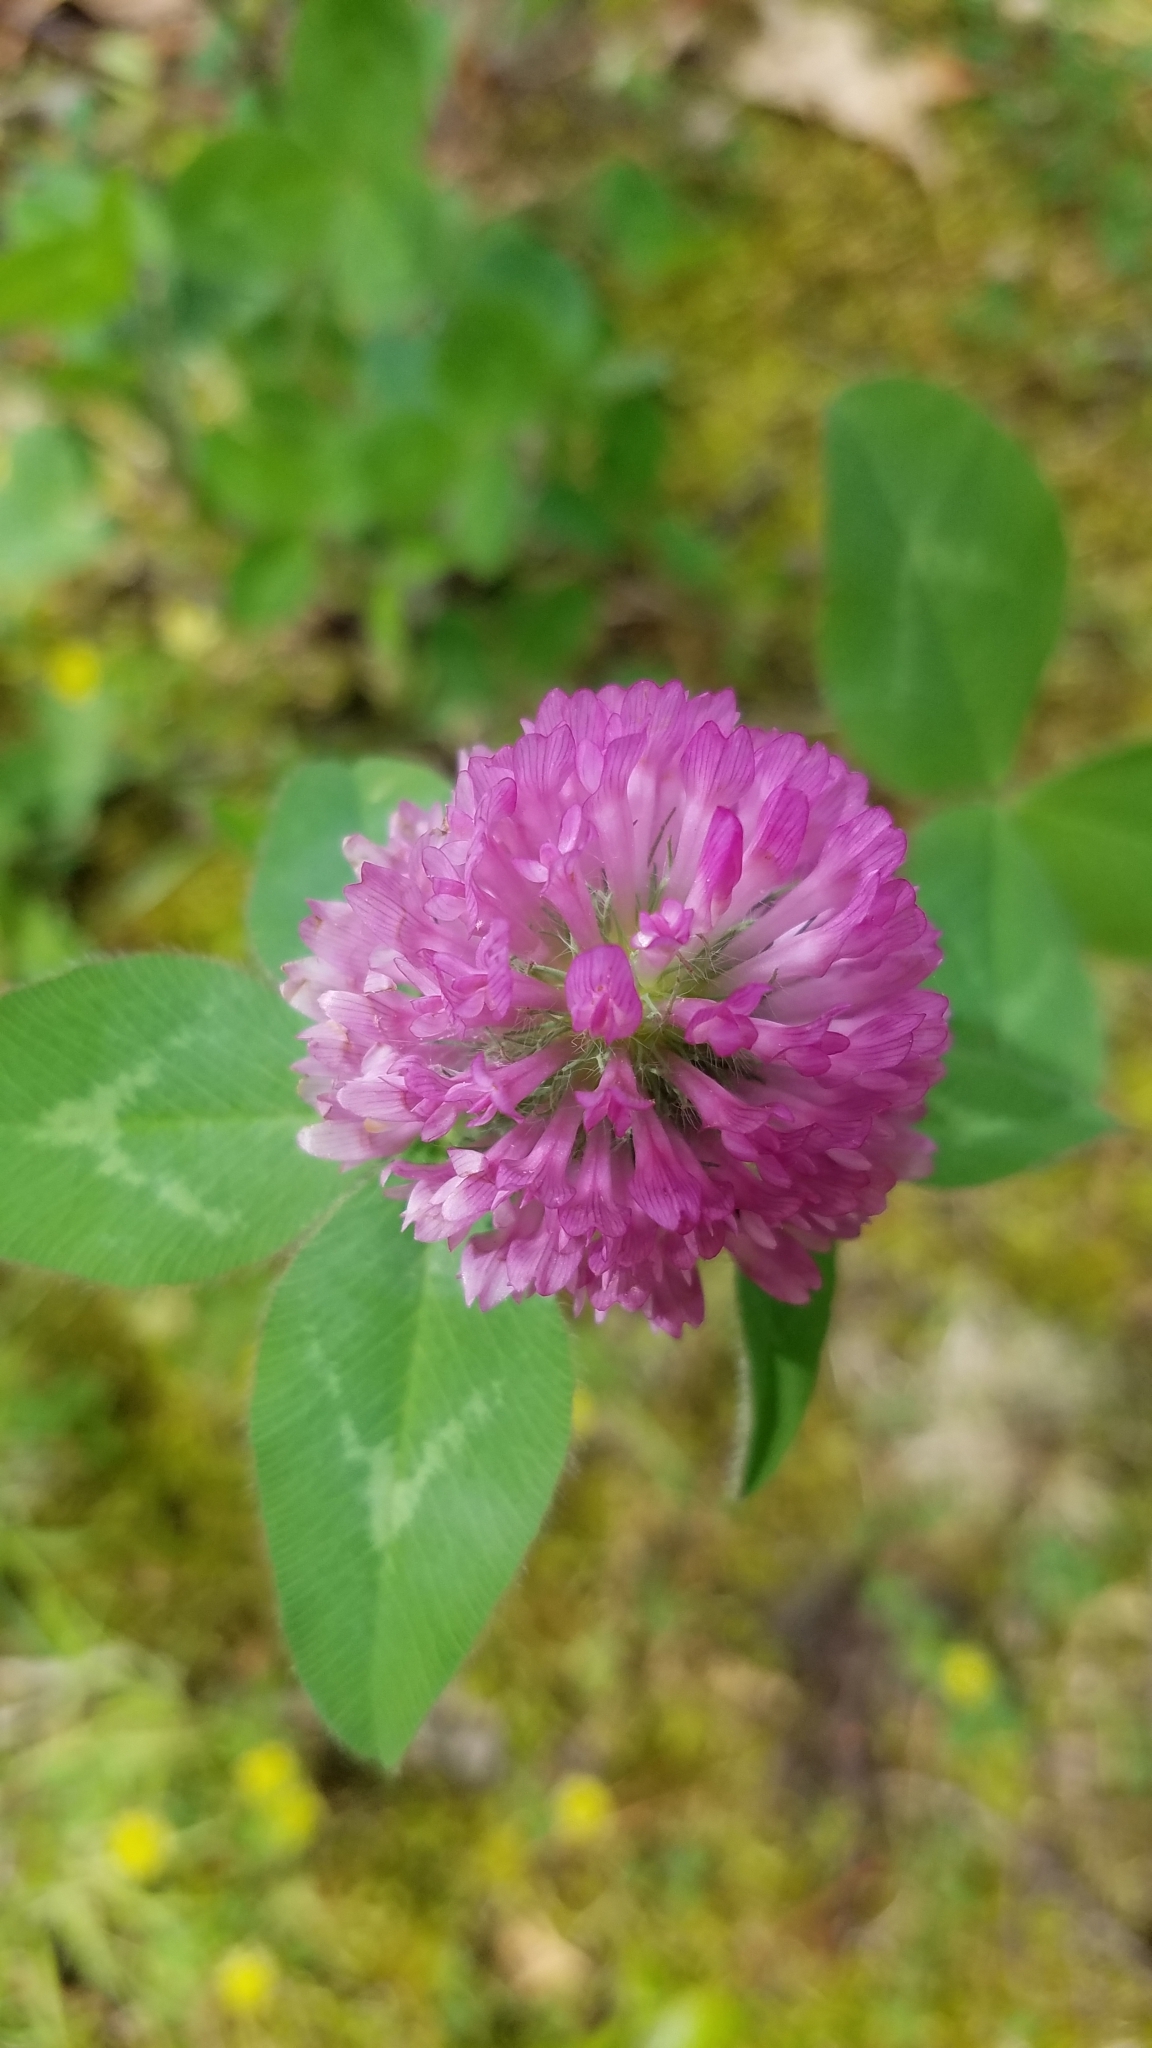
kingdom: Plantae
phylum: Tracheophyta
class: Magnoliopsida
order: Fabales
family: Fabaceae
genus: Trifolium
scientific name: Trifolium pratense
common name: Red clover
